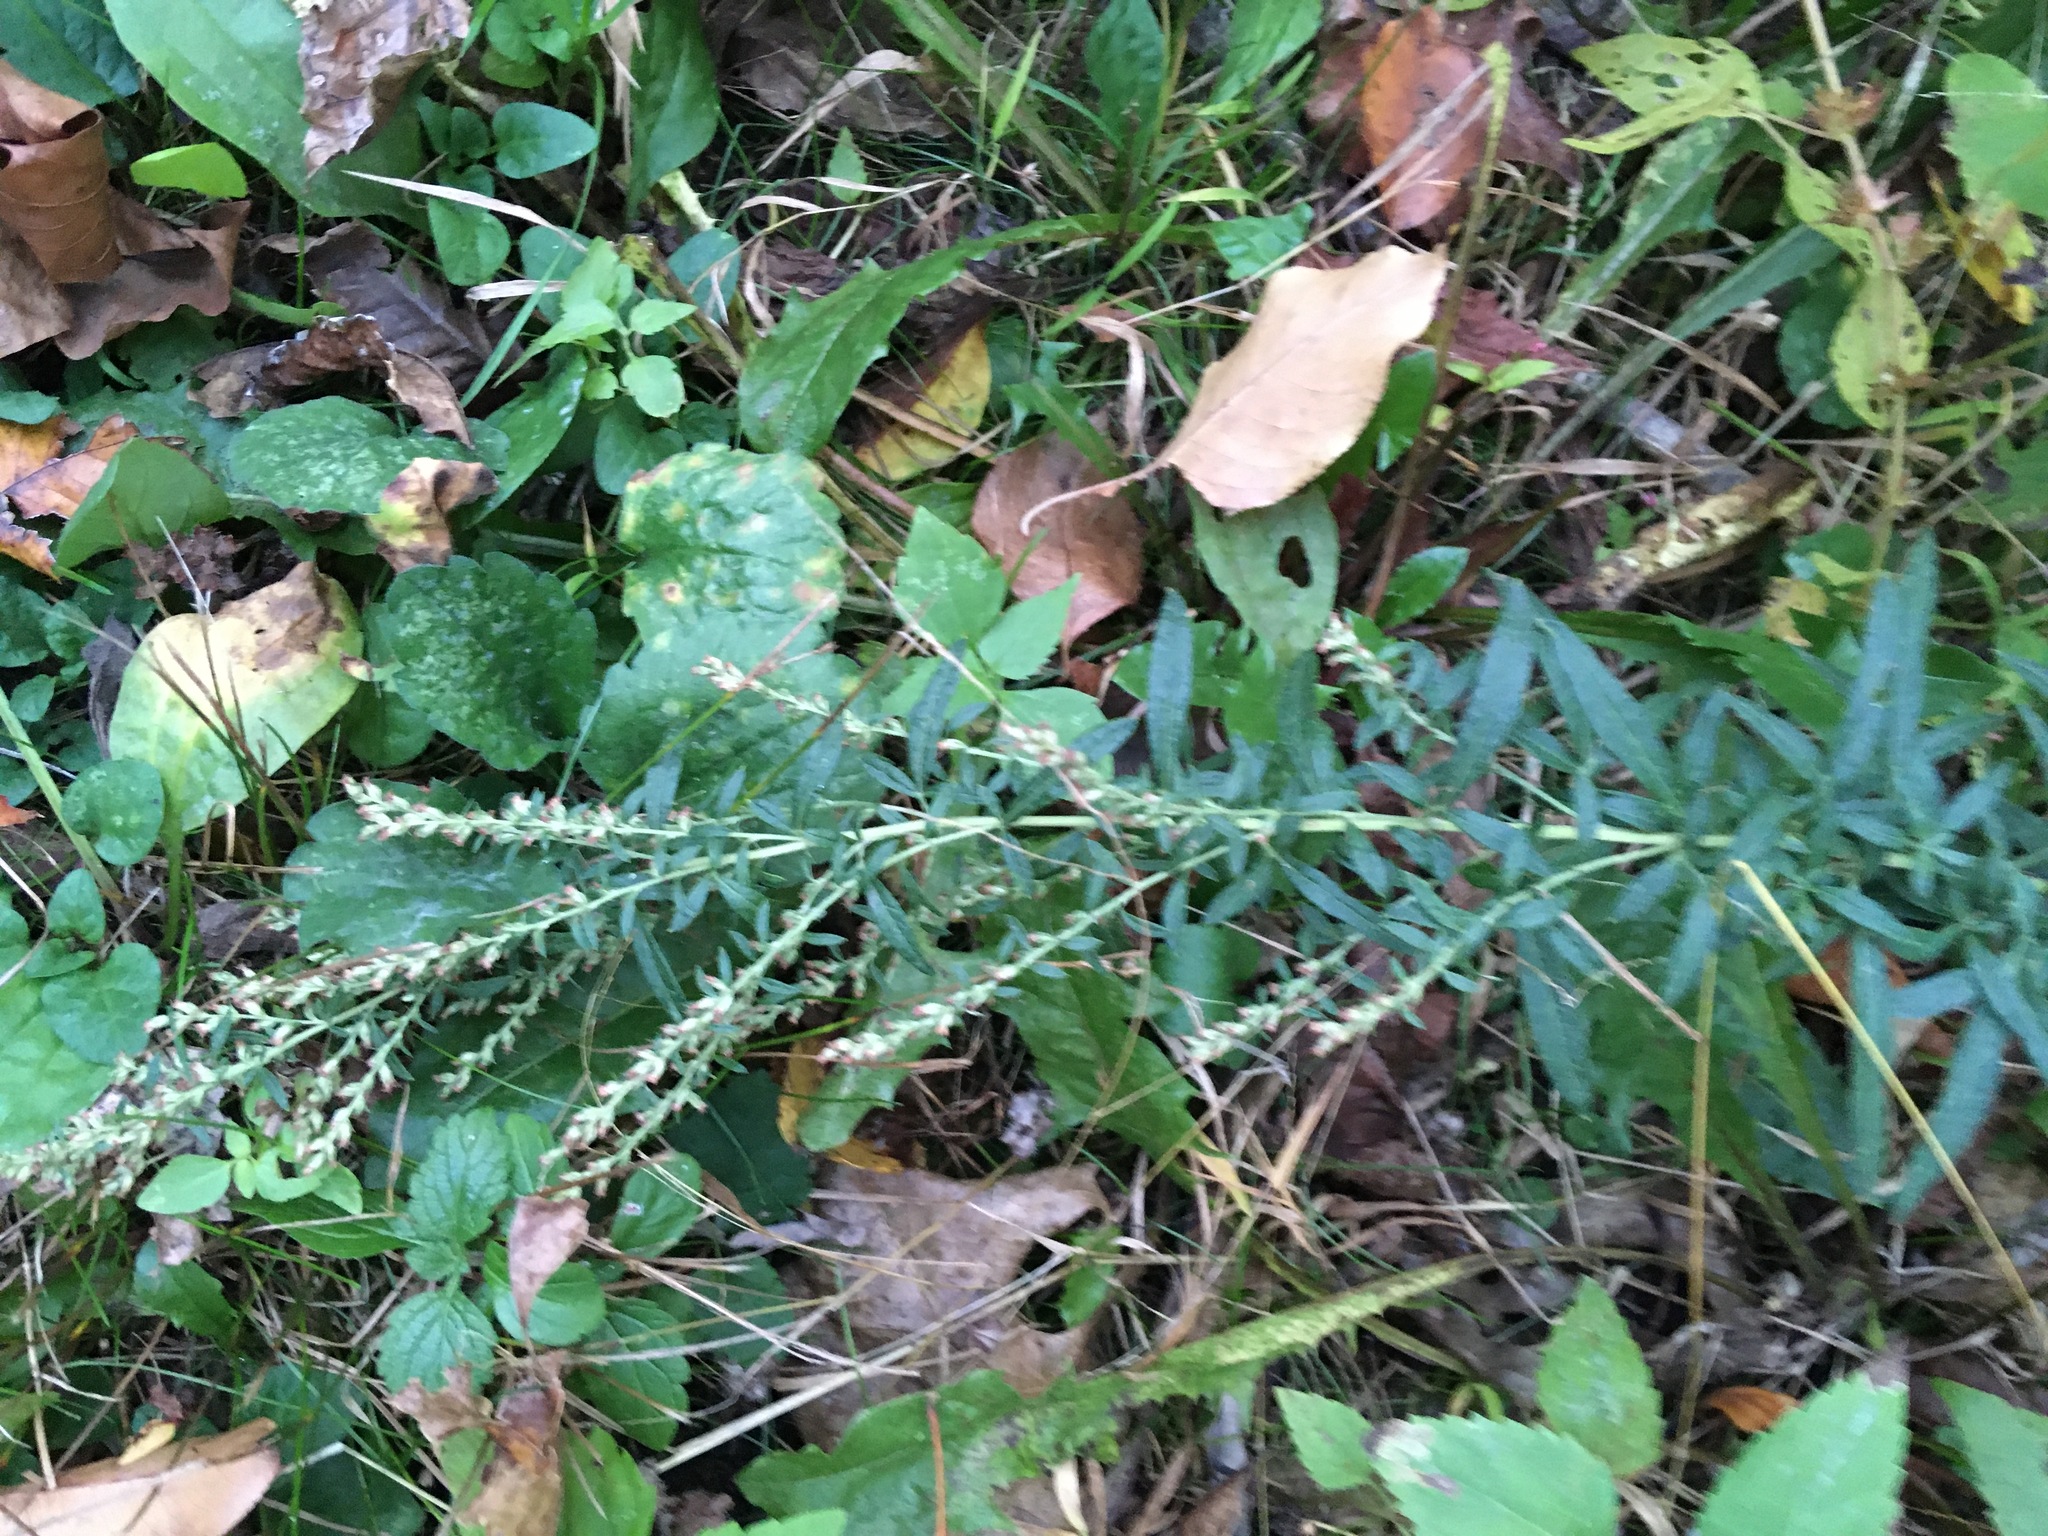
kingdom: Plantae
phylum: Tracheophyta
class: Magnoliopsida
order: Asterales
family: Asteraceae
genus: Artemisia
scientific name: Artemisia vulgaris
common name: Mugwort
